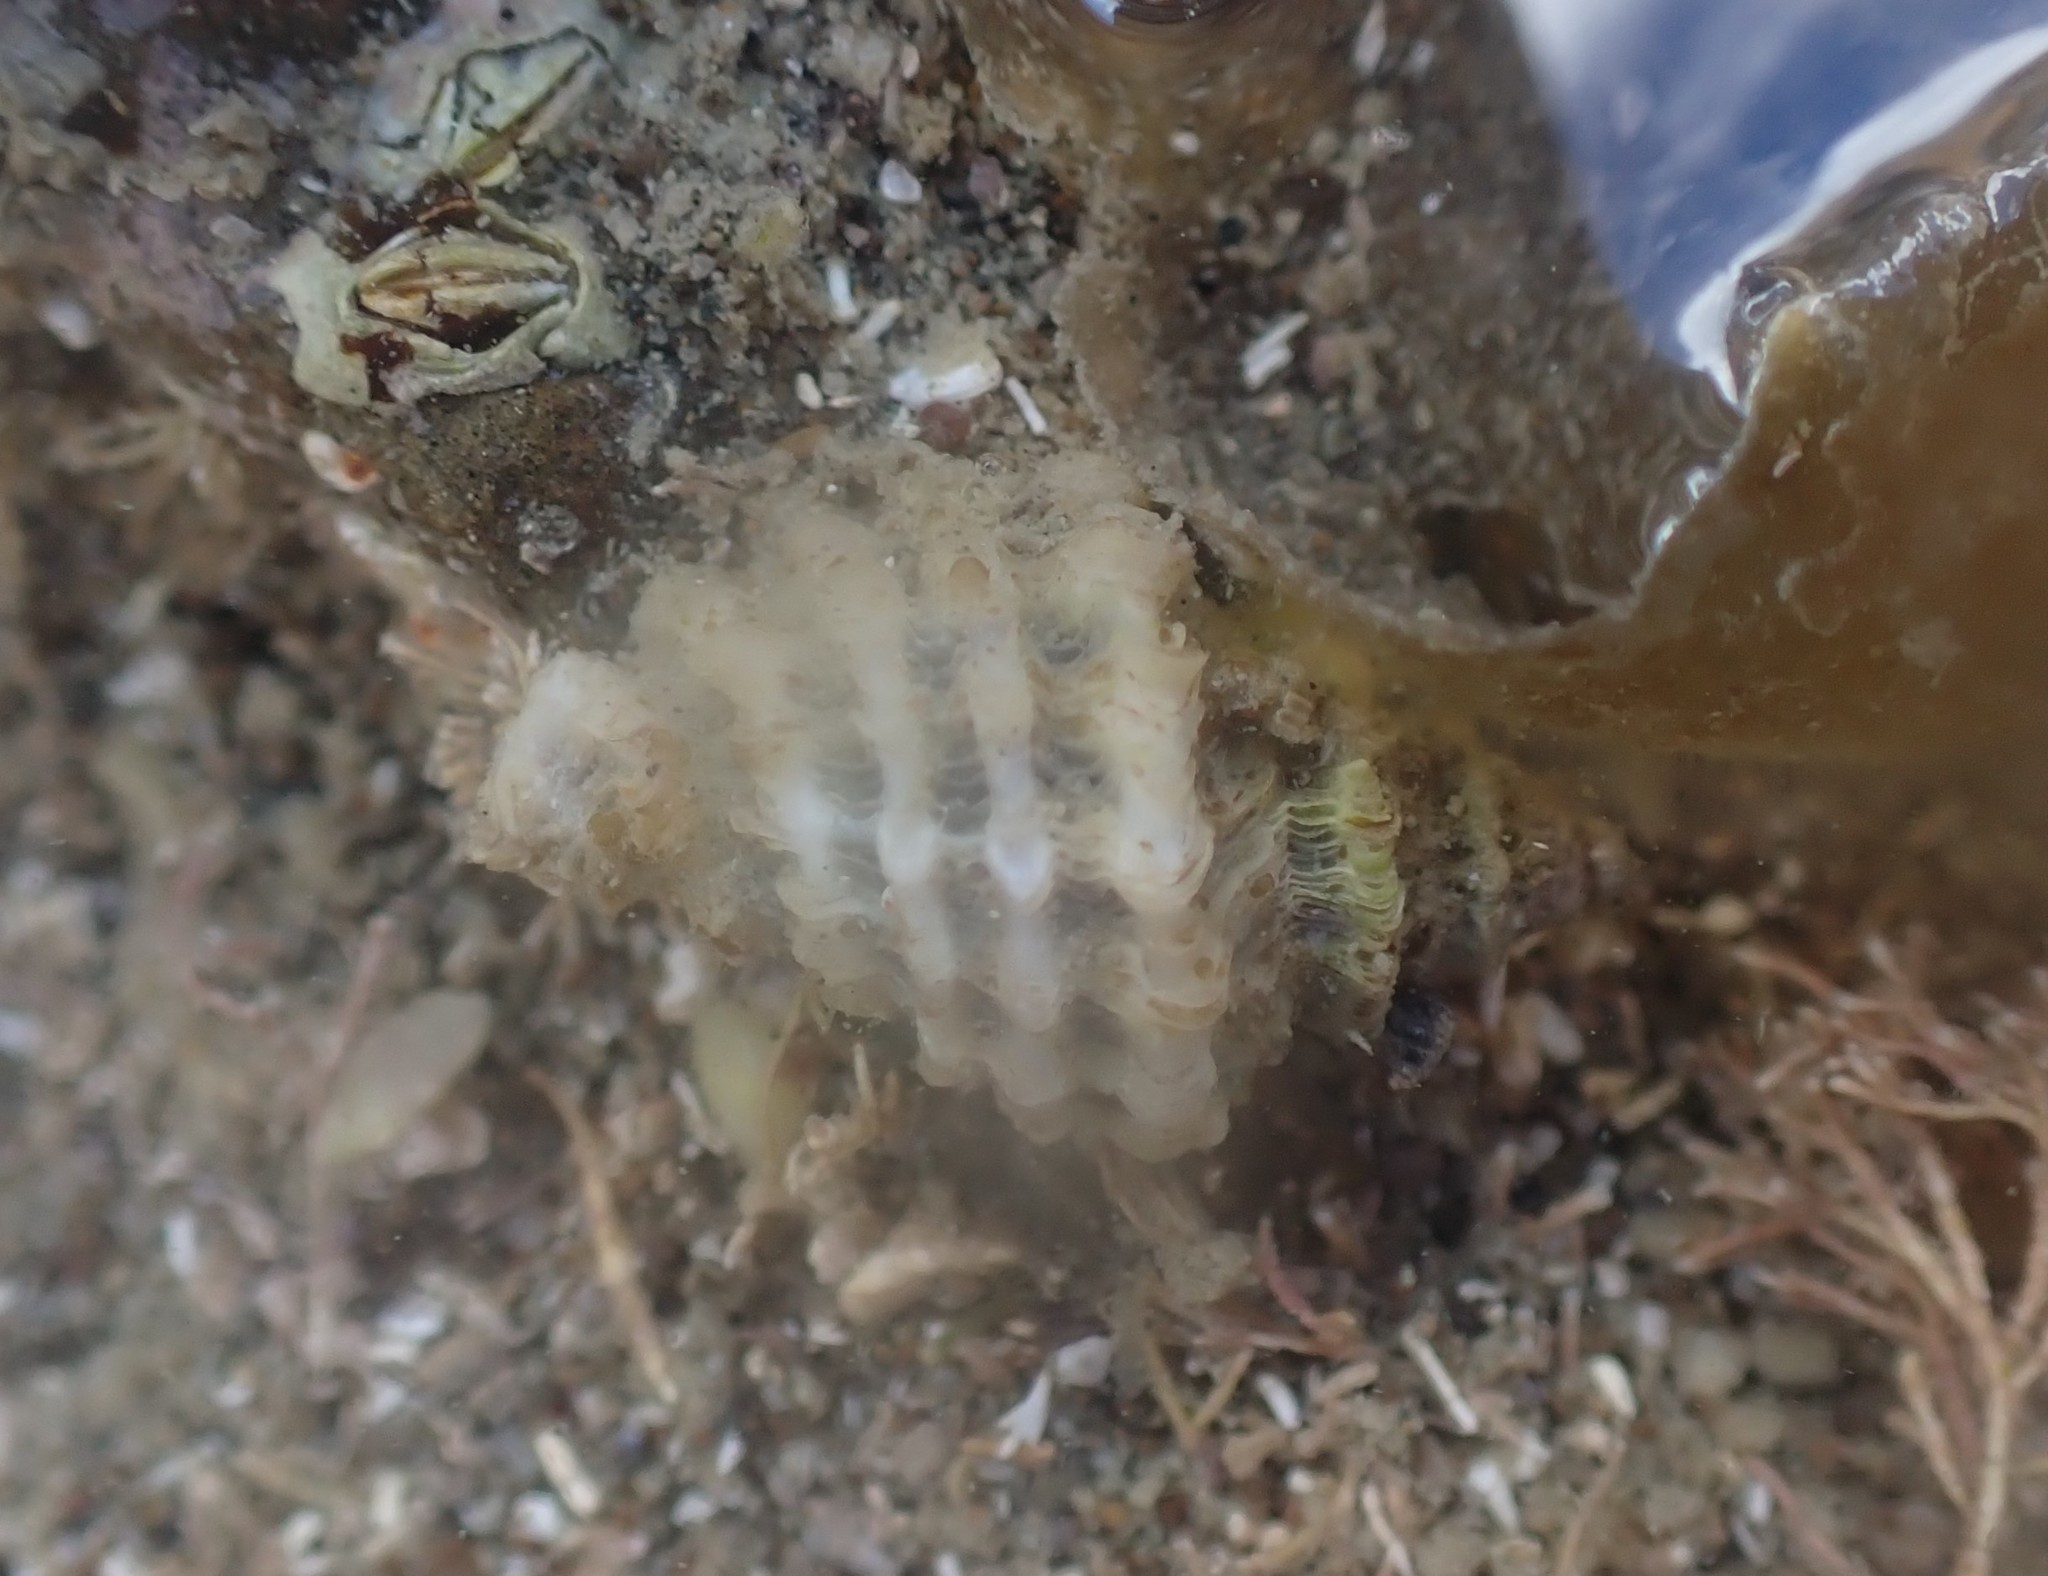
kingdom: Animalia
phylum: Mollusca
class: Gastropoda
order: Neogastropoda
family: Muricidae
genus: Paratrophon
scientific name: Paratrophon quoyi
